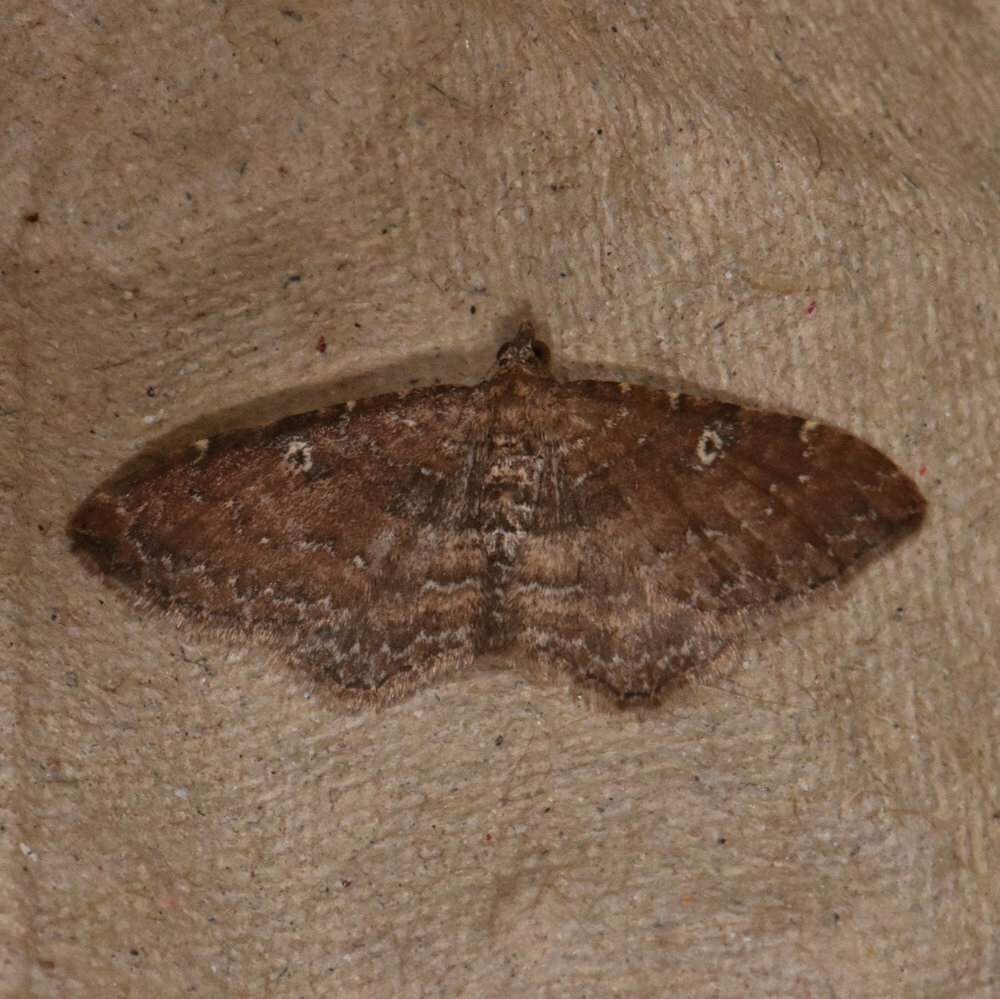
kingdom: Animalia
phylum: Arthropoda
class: Insecta
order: Lepidoptera
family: Geometridae
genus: Orthonama
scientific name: Orthonama obstipata
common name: The gem
